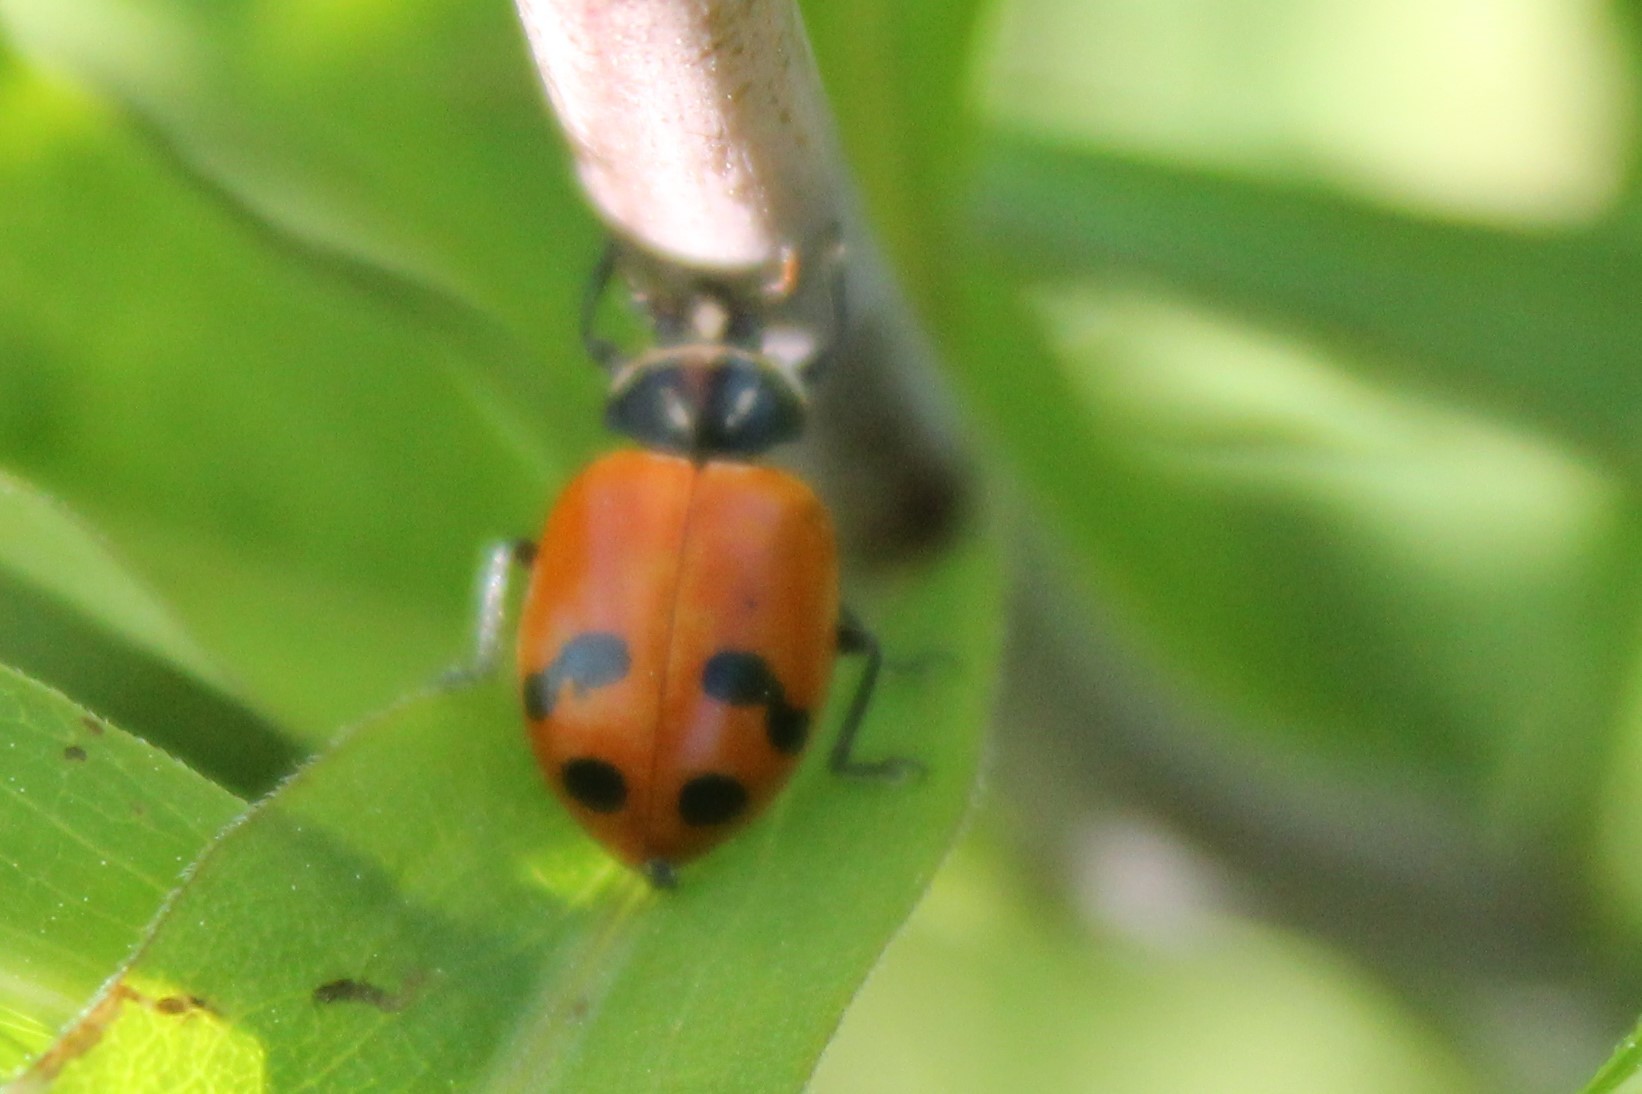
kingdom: Animalia
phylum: Arthropoda
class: Insecta
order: Coleoptera
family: Coccinellidae
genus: Hippodamia
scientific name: Hippodamia glacialis
